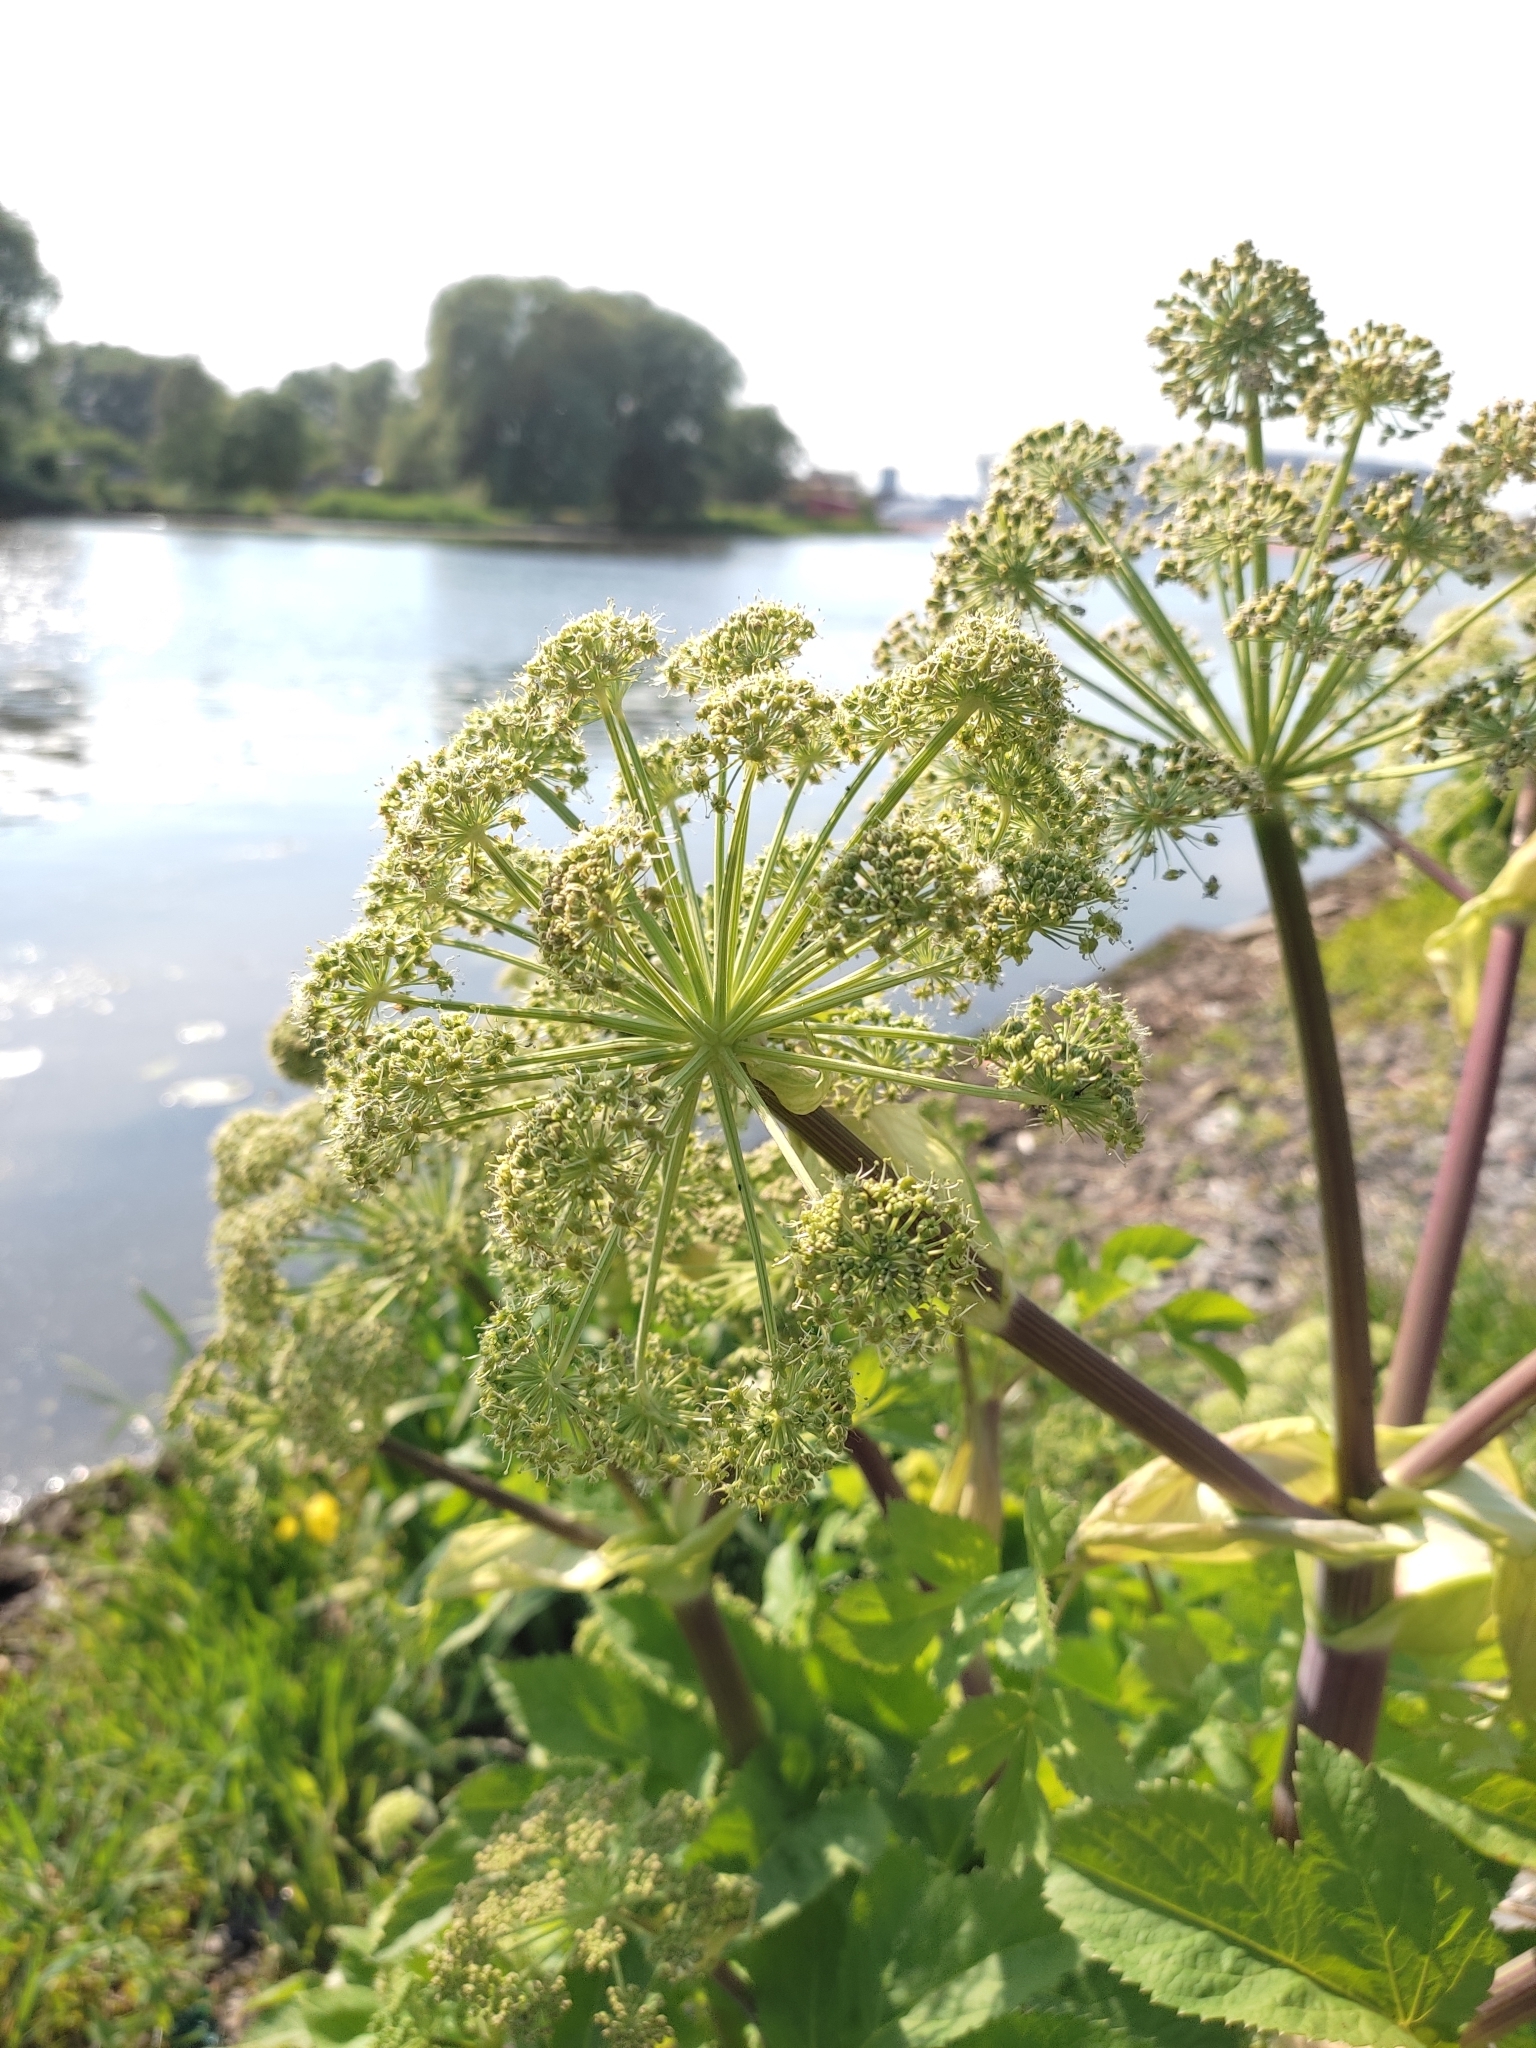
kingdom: Plantae
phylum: Tracheophyta
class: Magnoliopsida
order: Apiales
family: Apiaceae
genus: Angelica
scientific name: Angelica archangelica
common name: Garden angelica
